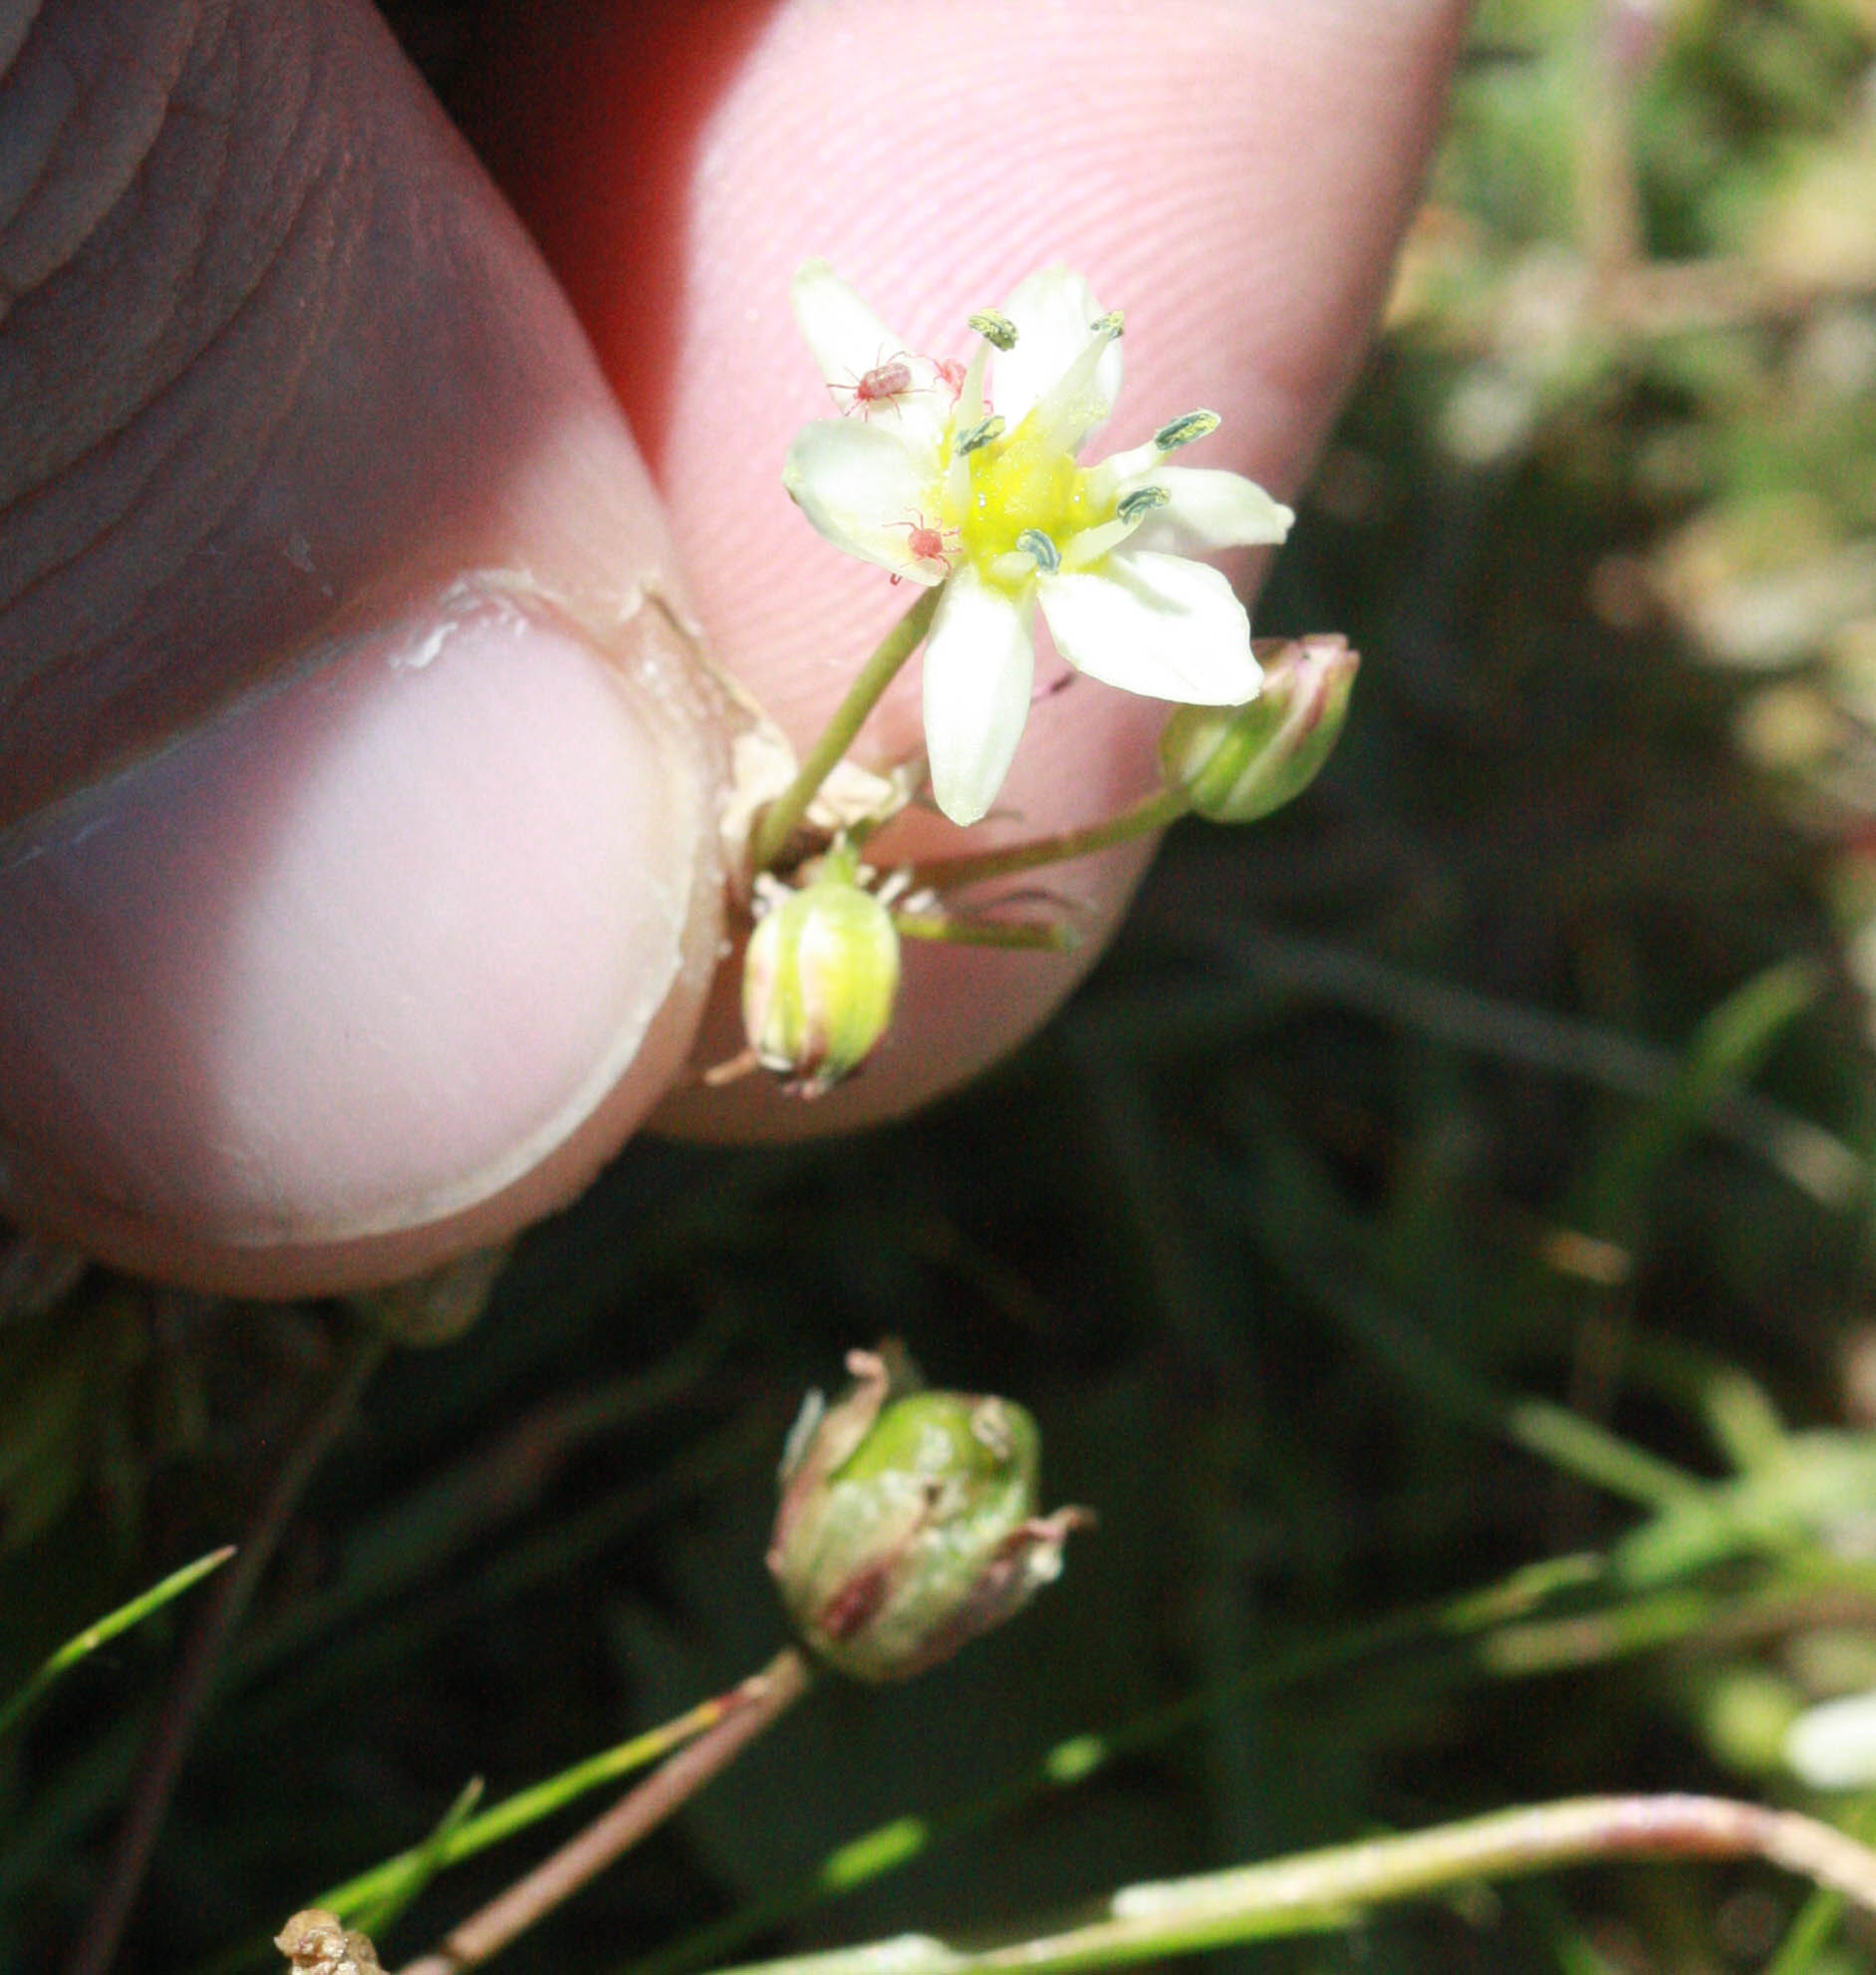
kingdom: Plantae
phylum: Tracheophyta
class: Liliopsida
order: Asparagales
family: Asparagaceae
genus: Muilla
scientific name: Muilla maritima
